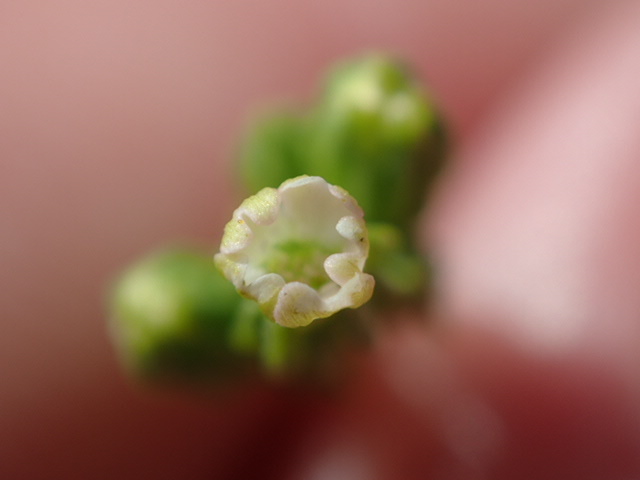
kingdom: Plantae
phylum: Tracheophyta
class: Magnoliopsida
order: Caryophyllales
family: Caryophyllaceae
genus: Silene
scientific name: Silene antirrhina
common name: Sleepy catchfly
